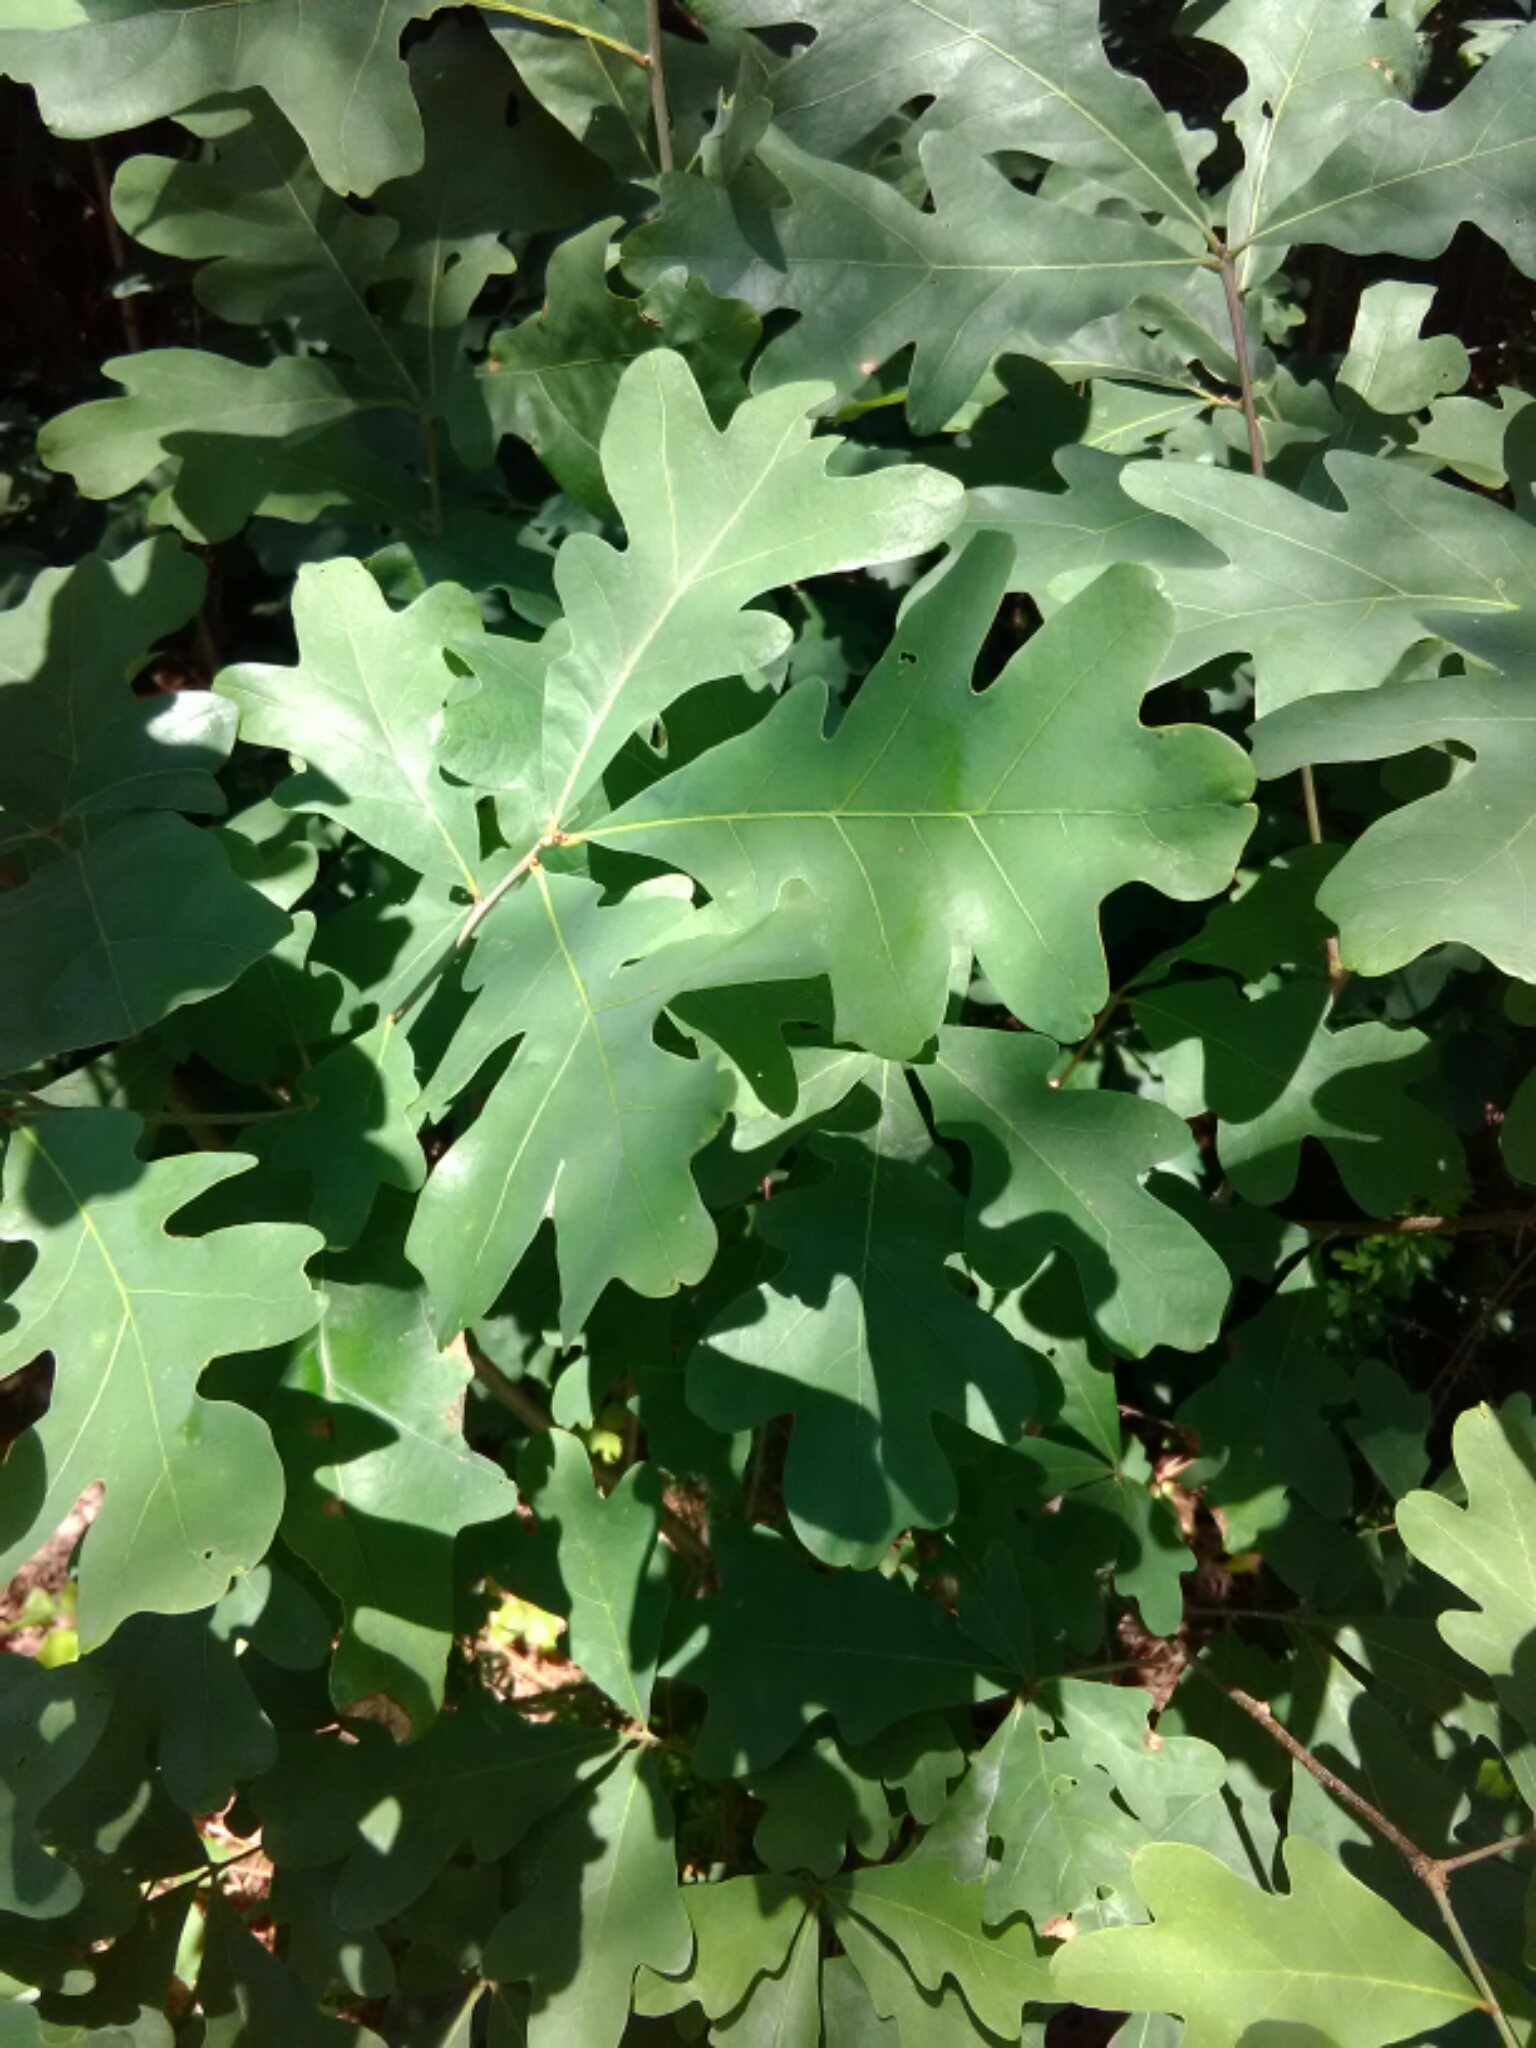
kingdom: Plantae
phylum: Tracheophyta
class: Magnoliopsida
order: Fagales
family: Fagaceae
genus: Quercus
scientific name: Quercus alba
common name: White oak
